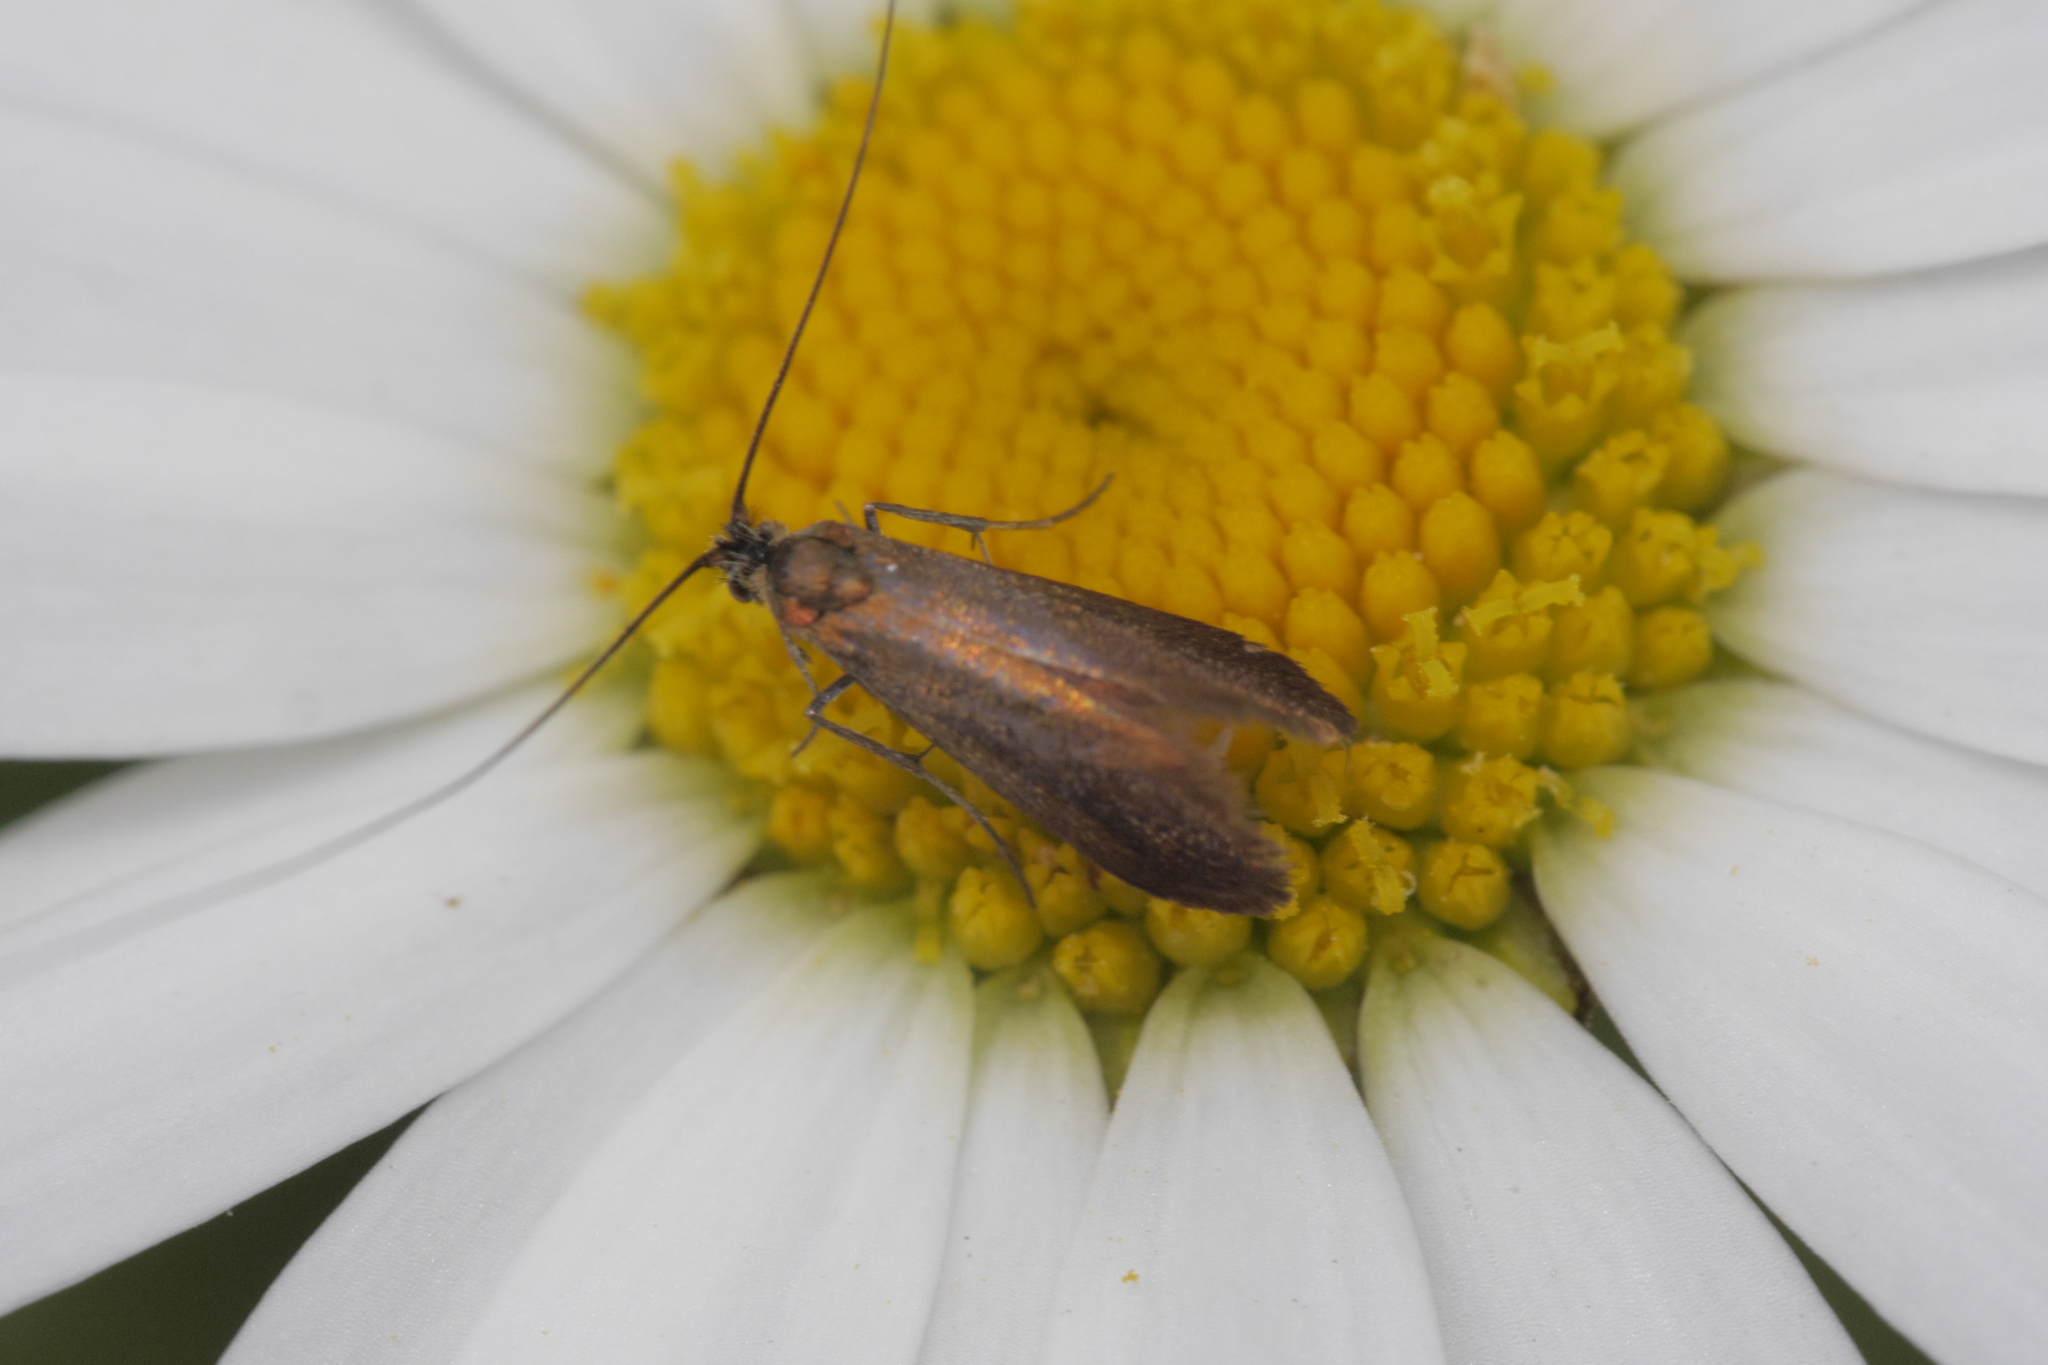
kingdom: Animalia
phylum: Arthropoda
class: Insecta
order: Lepidoptera
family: Adelidae
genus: Adela
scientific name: Adela violella
